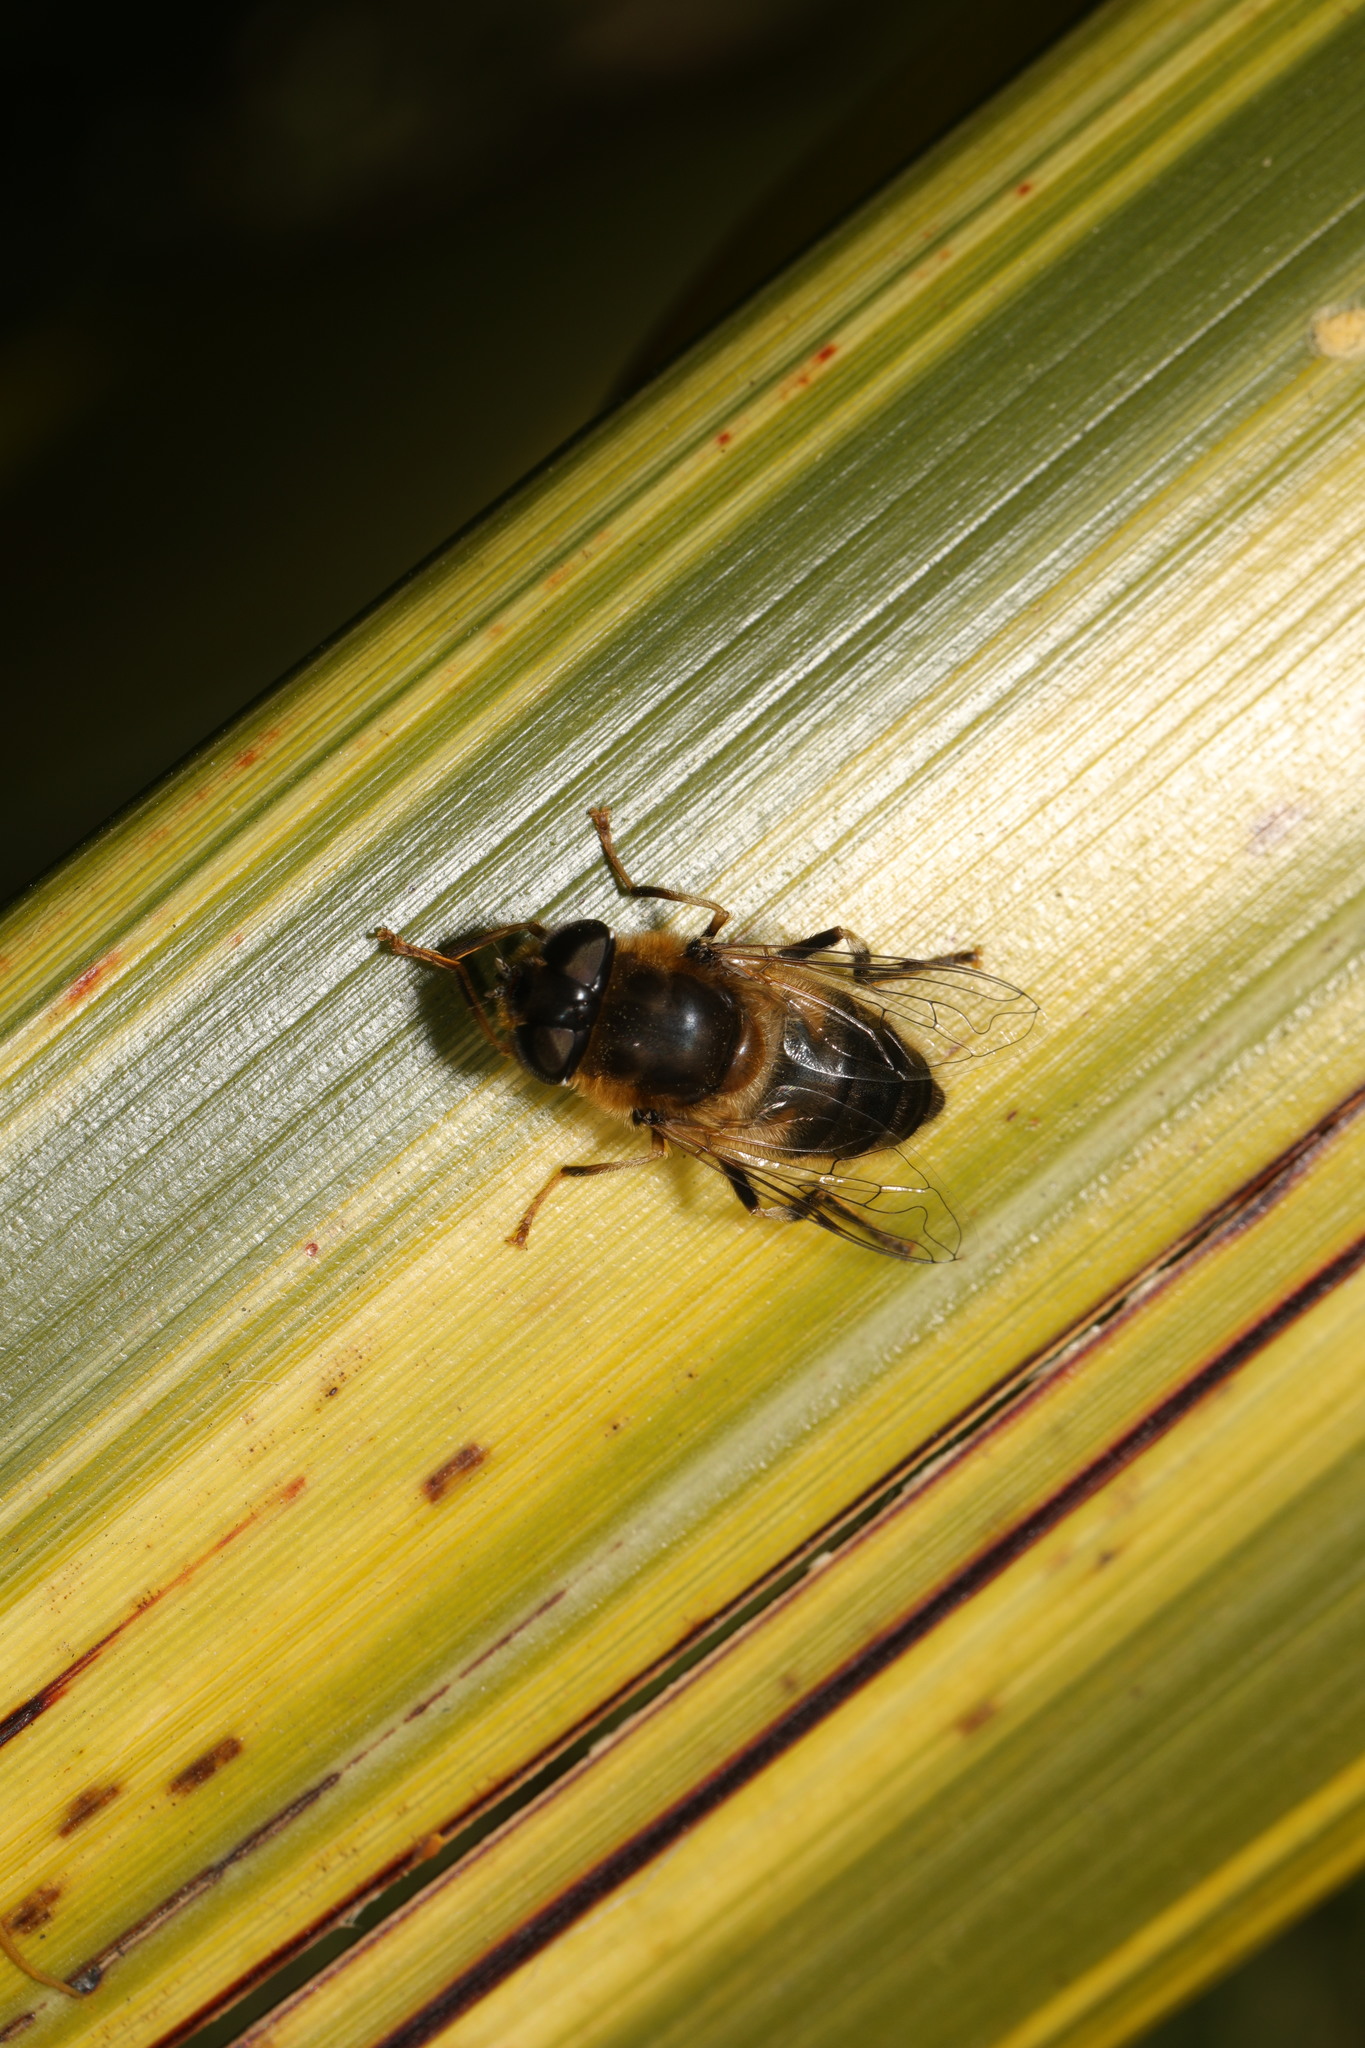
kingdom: Animalia
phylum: Arthropoda
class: Insecta
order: Diptera
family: Syrphidae
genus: Eristalis
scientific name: Eristalis pertinax
